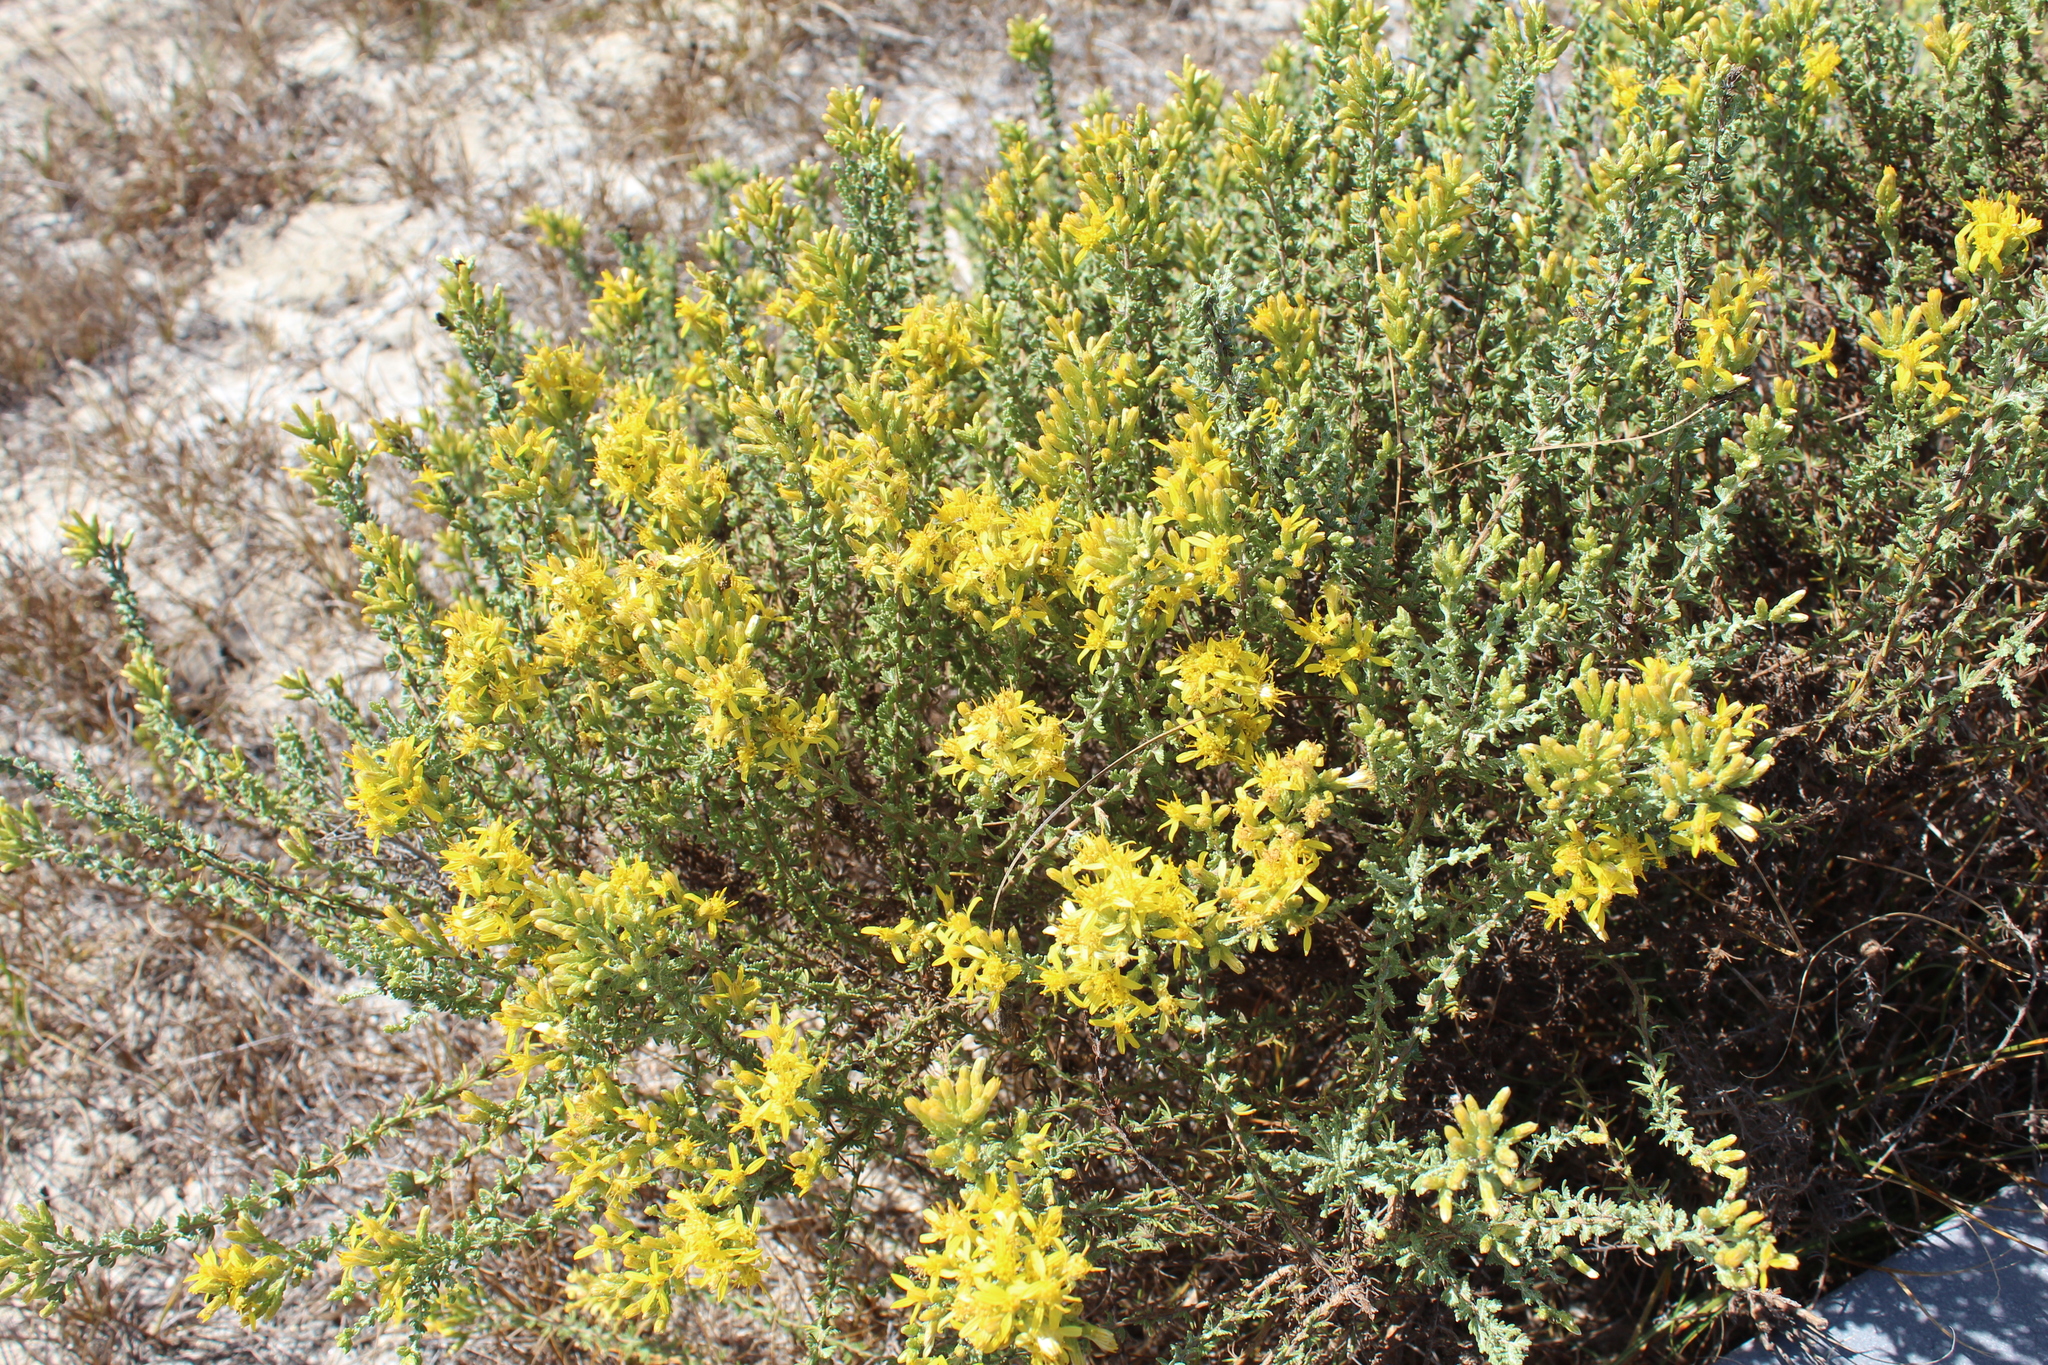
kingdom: Plantae
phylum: Tracheophyta
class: Magnoliopsida
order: Asterales
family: Asteraceae
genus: Ericameria
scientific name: Ericameria ericoides
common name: California goldenbush
